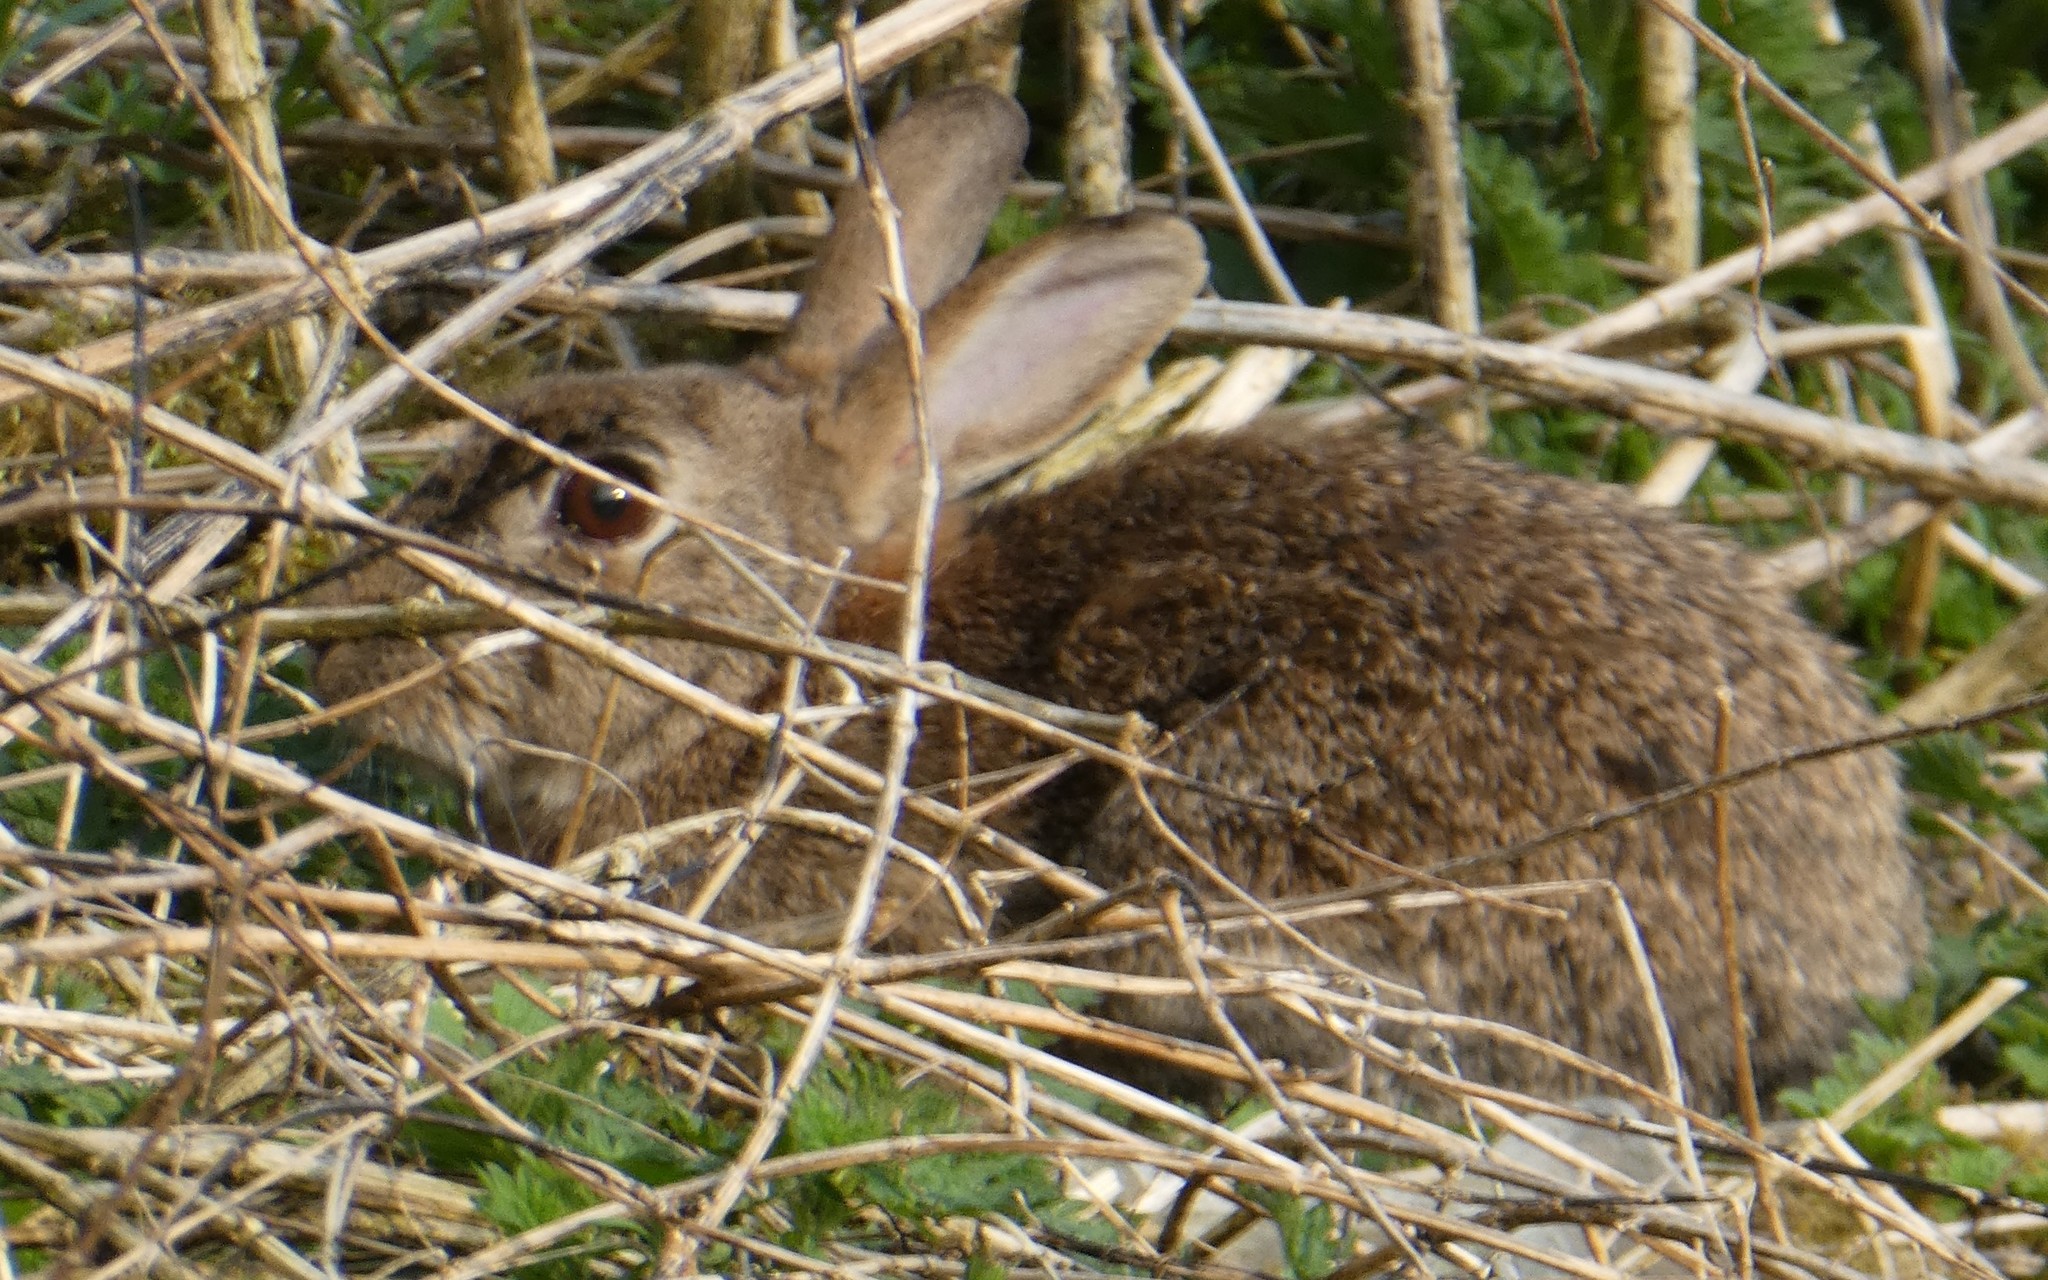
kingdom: Animalia
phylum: Chordata
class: Mammalia
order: Lagomorpha
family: Leporidae
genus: Oryctolagus
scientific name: Oryctolagus cuniculus
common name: European rabbit
